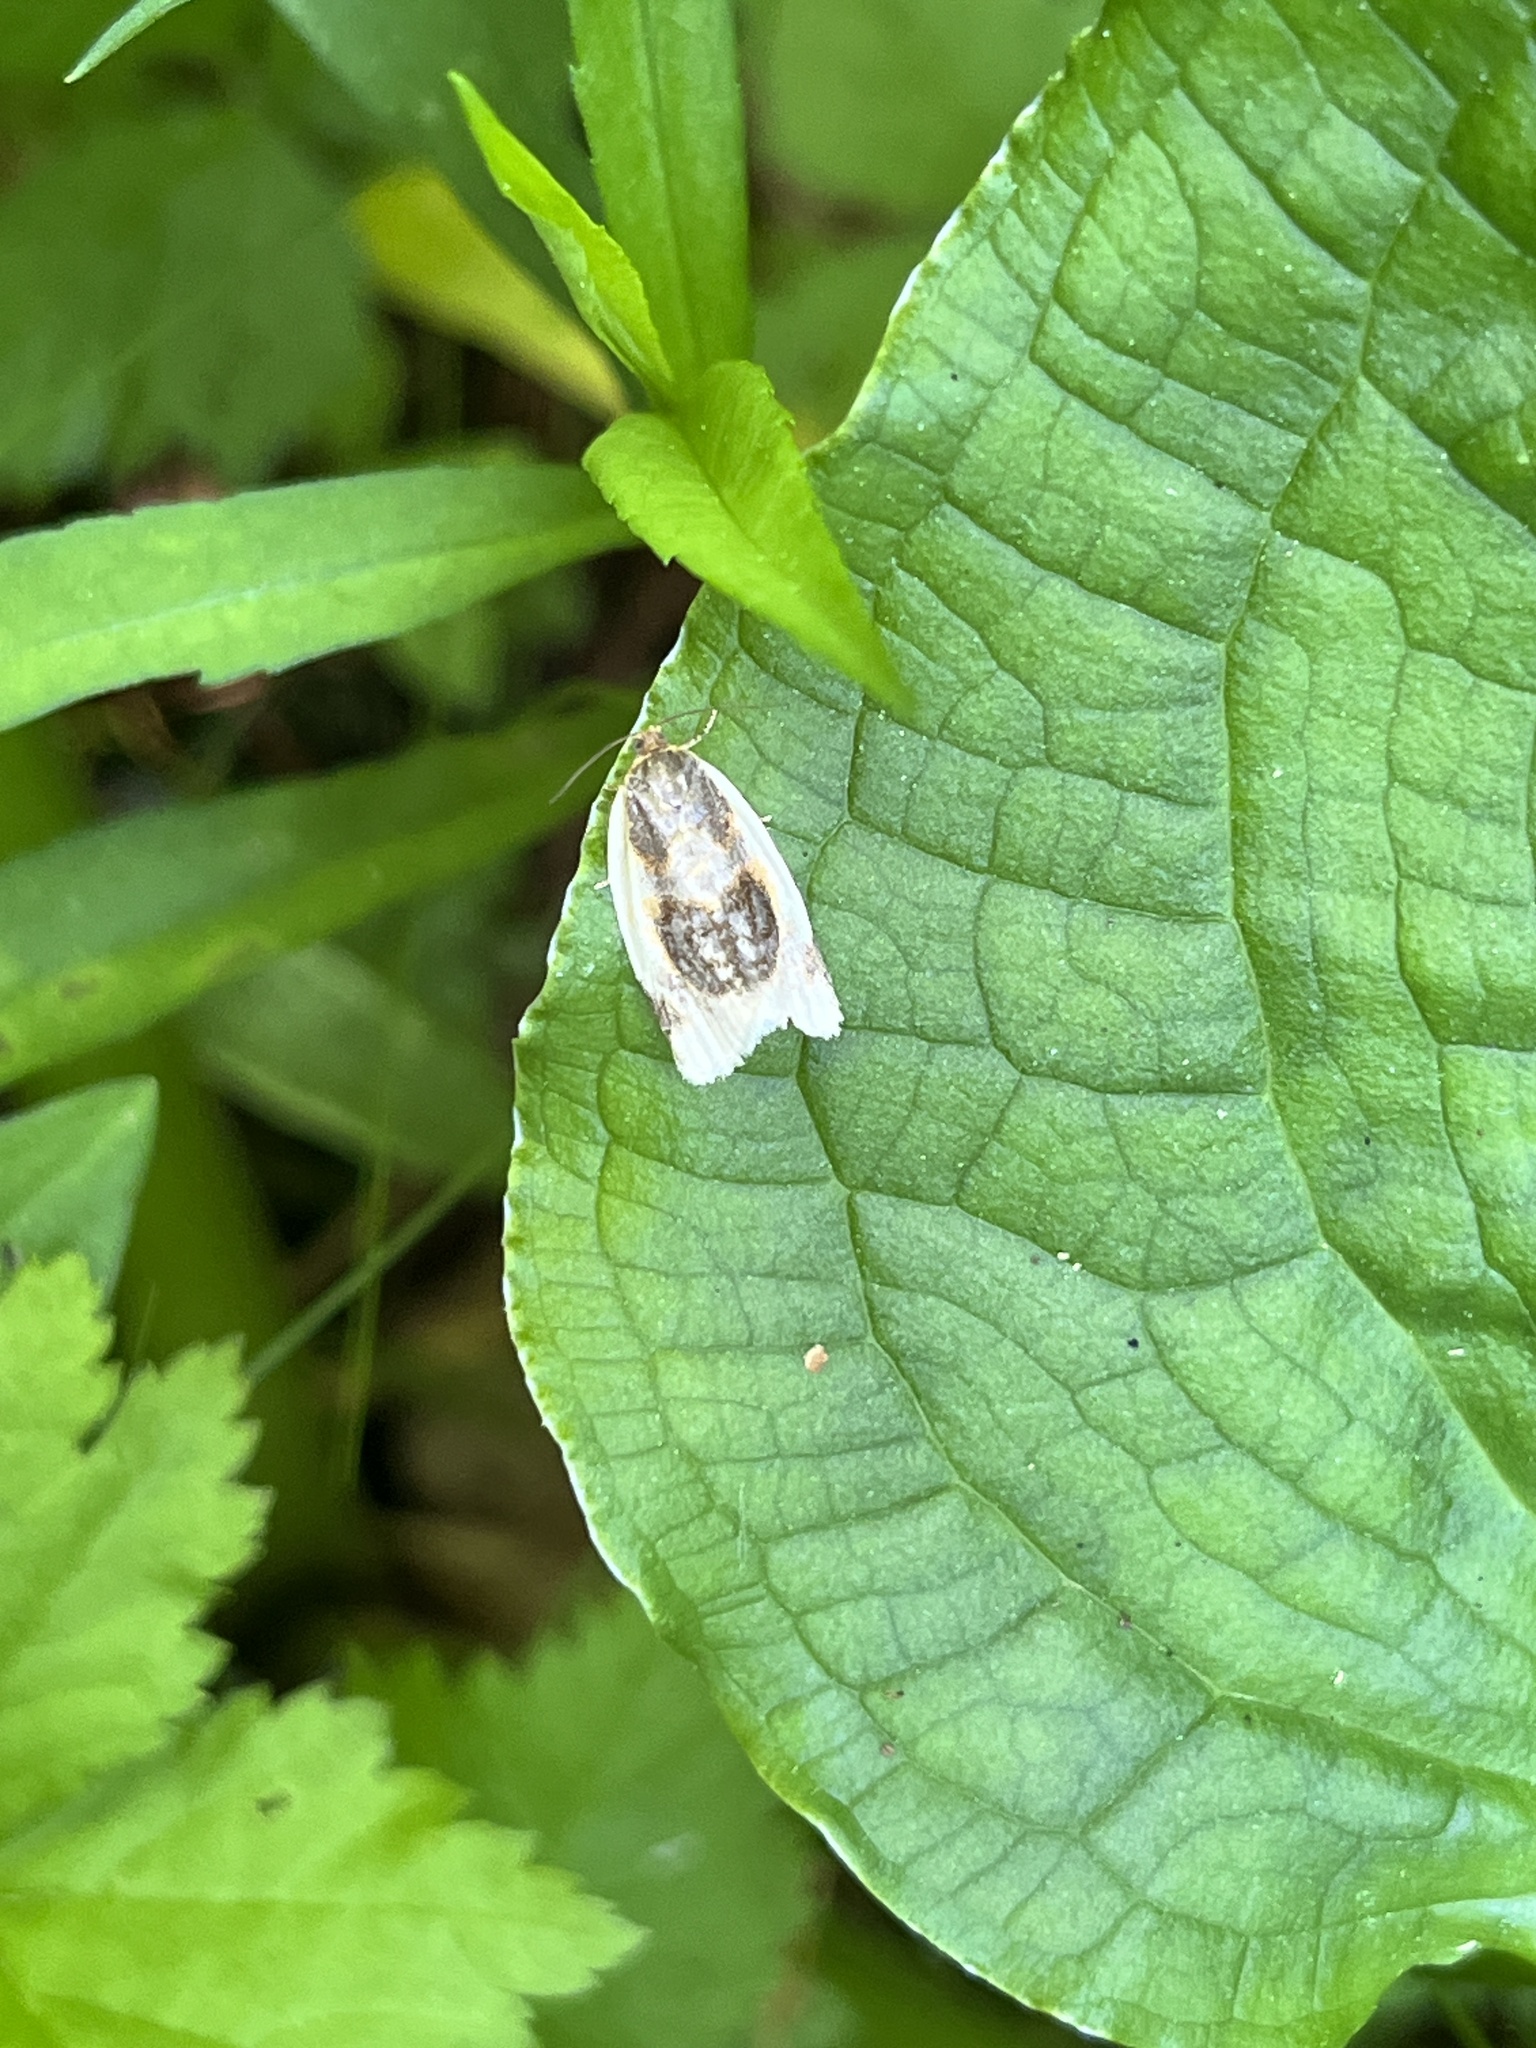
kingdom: Animalia
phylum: Arthropoda
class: Insecta
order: Lepidoptera
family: Tortricidae
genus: Clepsis
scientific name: Clepsis melaleucanus
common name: American apple tortrix
